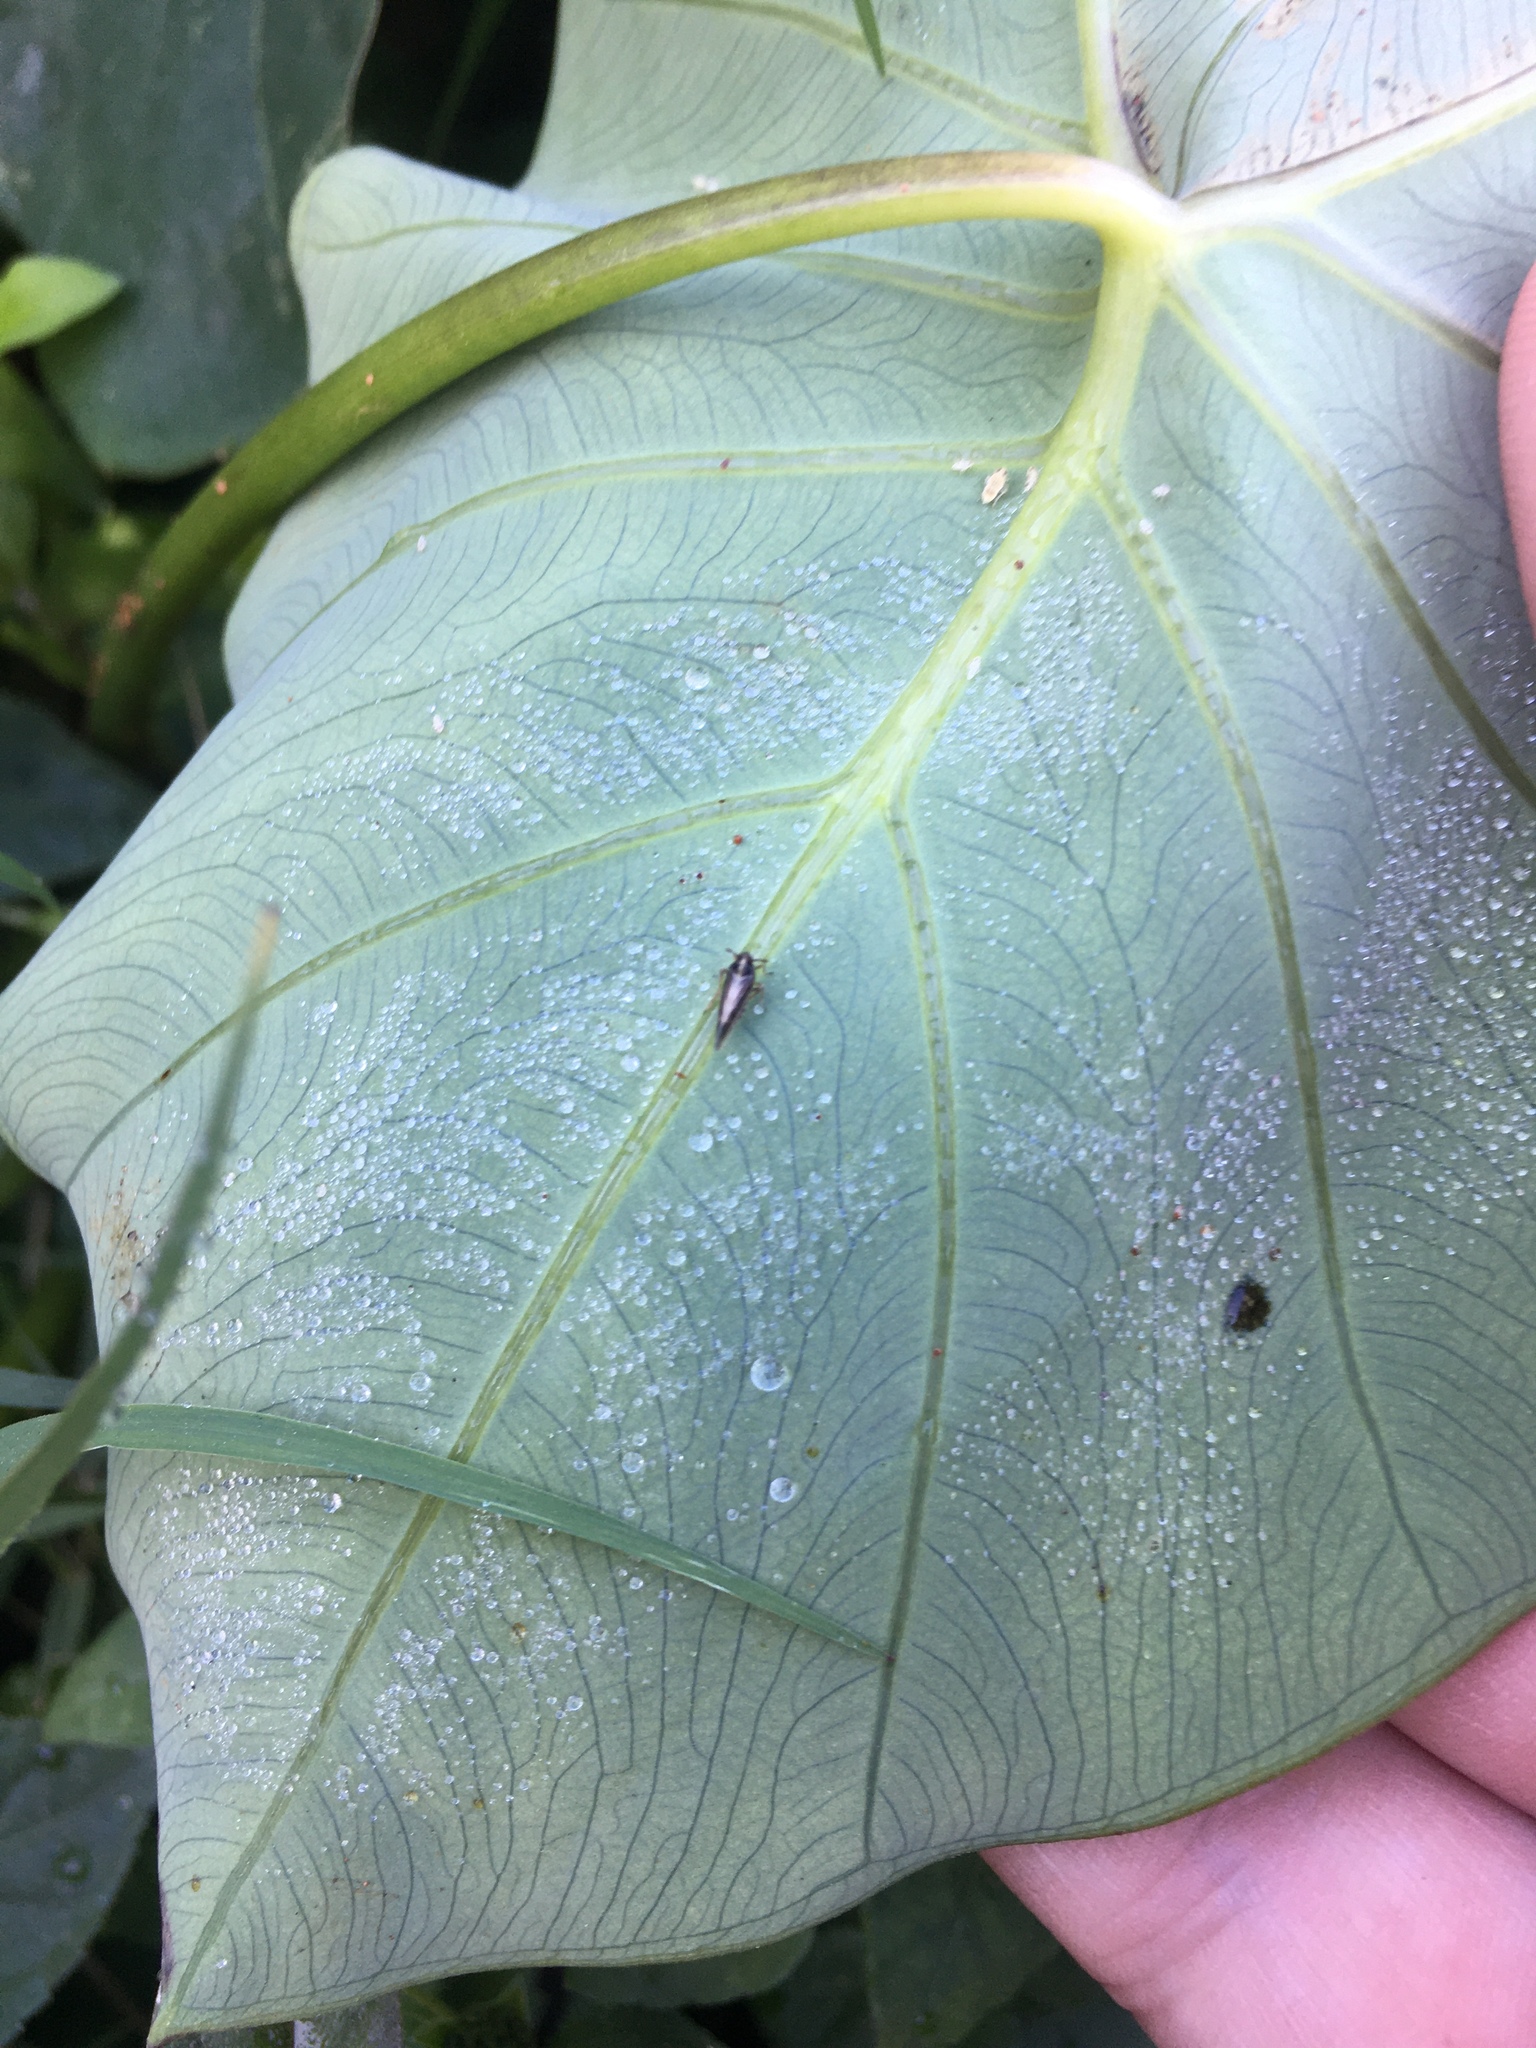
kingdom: Animalia
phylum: Arthropoda
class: Insecta
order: Hemiptera
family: Delphacidae
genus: Tarophagus
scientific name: Tarophagus colocasiae
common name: Taro planthopper
